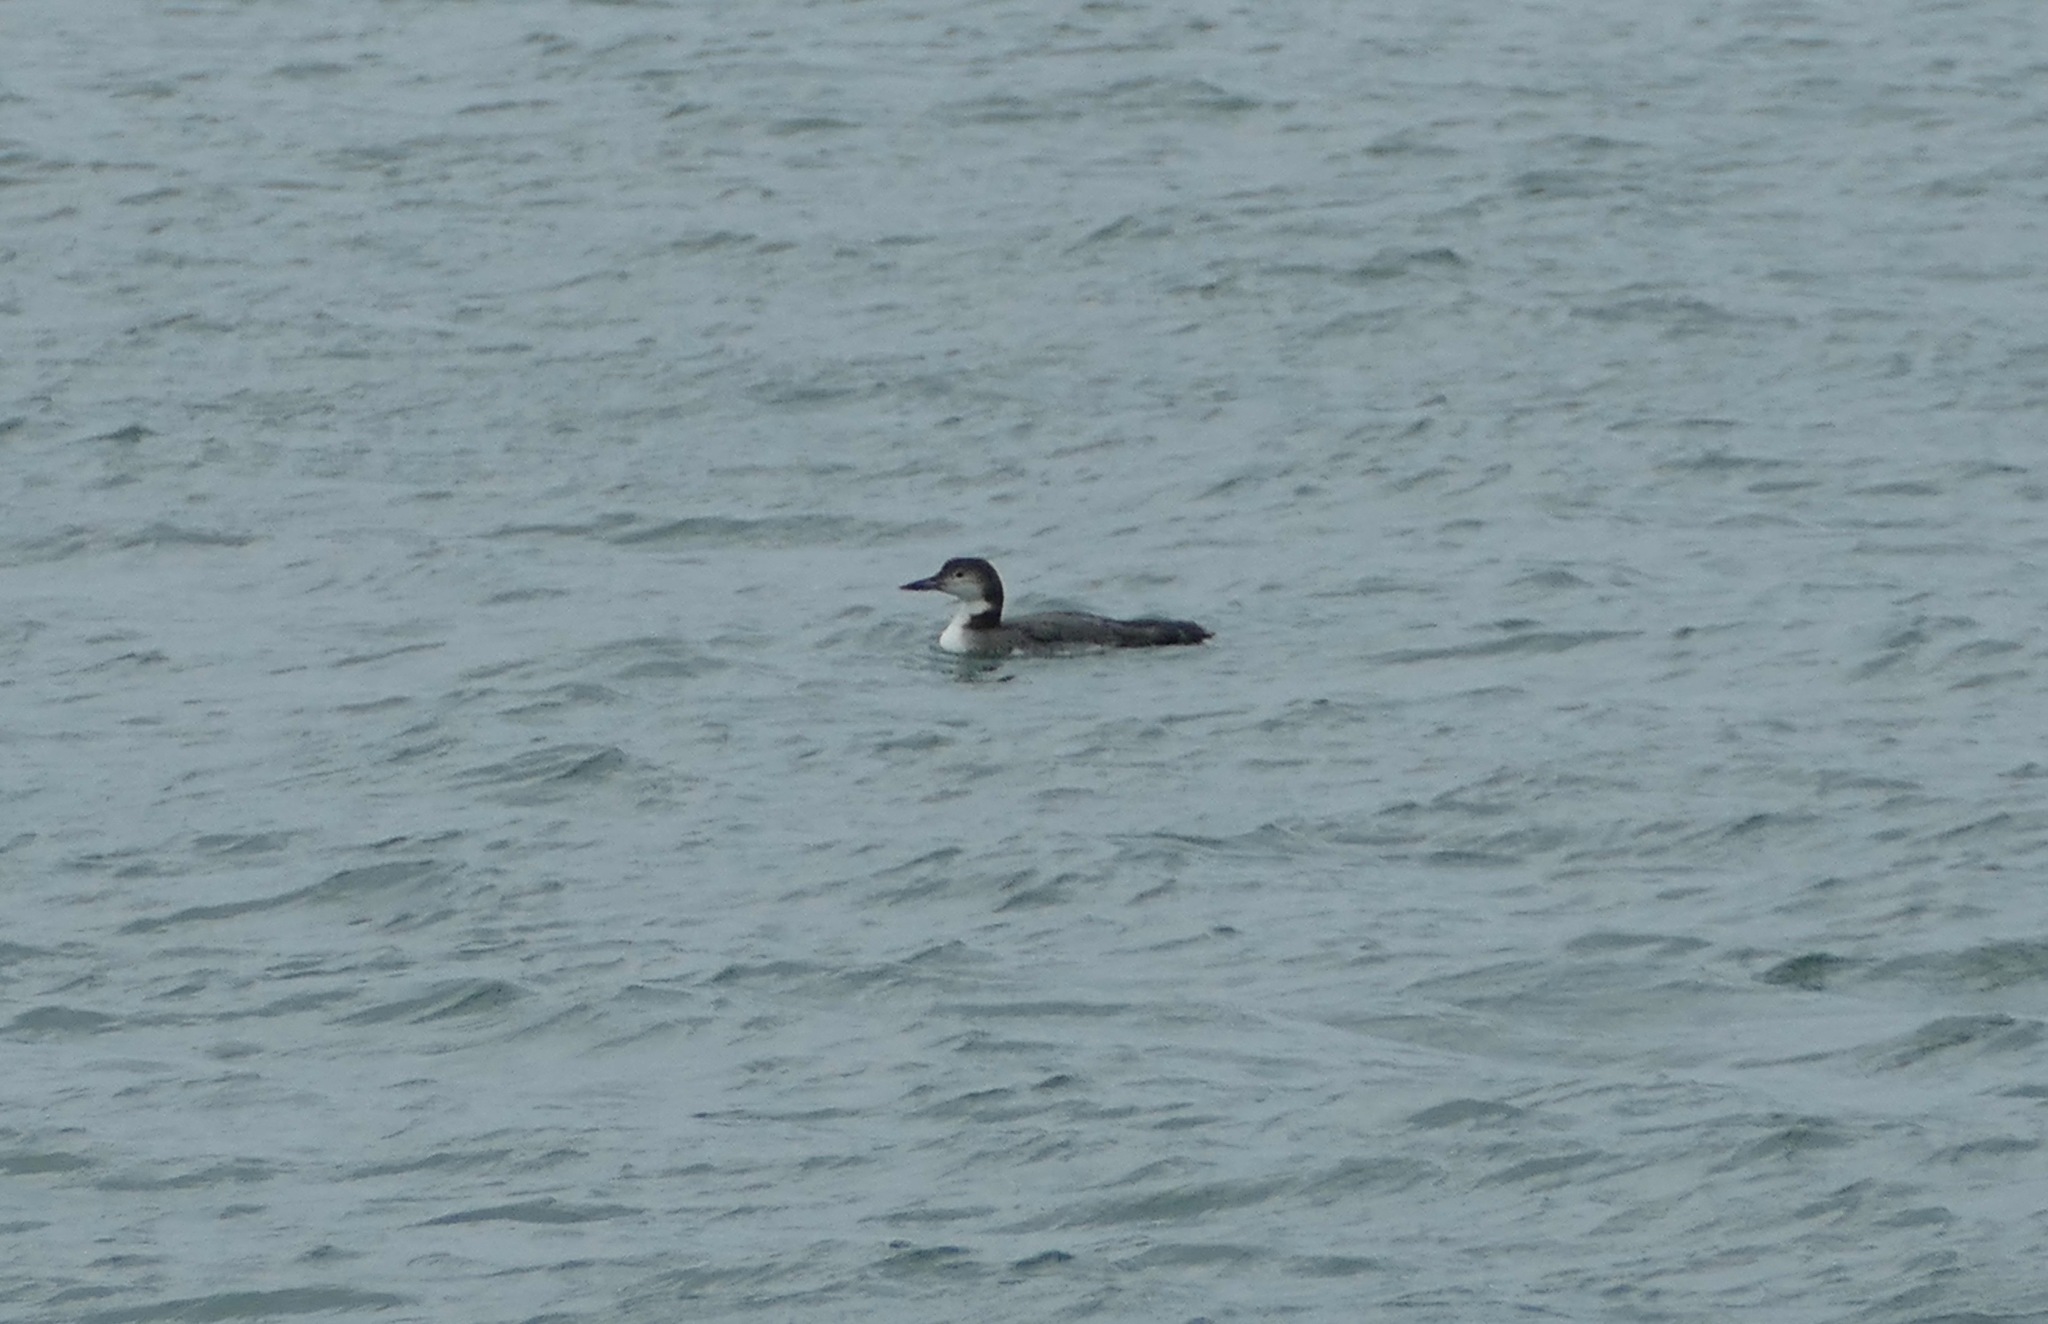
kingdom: Animalia
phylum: Chordata
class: Aves
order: Gaviiformes
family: Gaviidae
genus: Gavia
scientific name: Gavia immer
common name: Common loon
